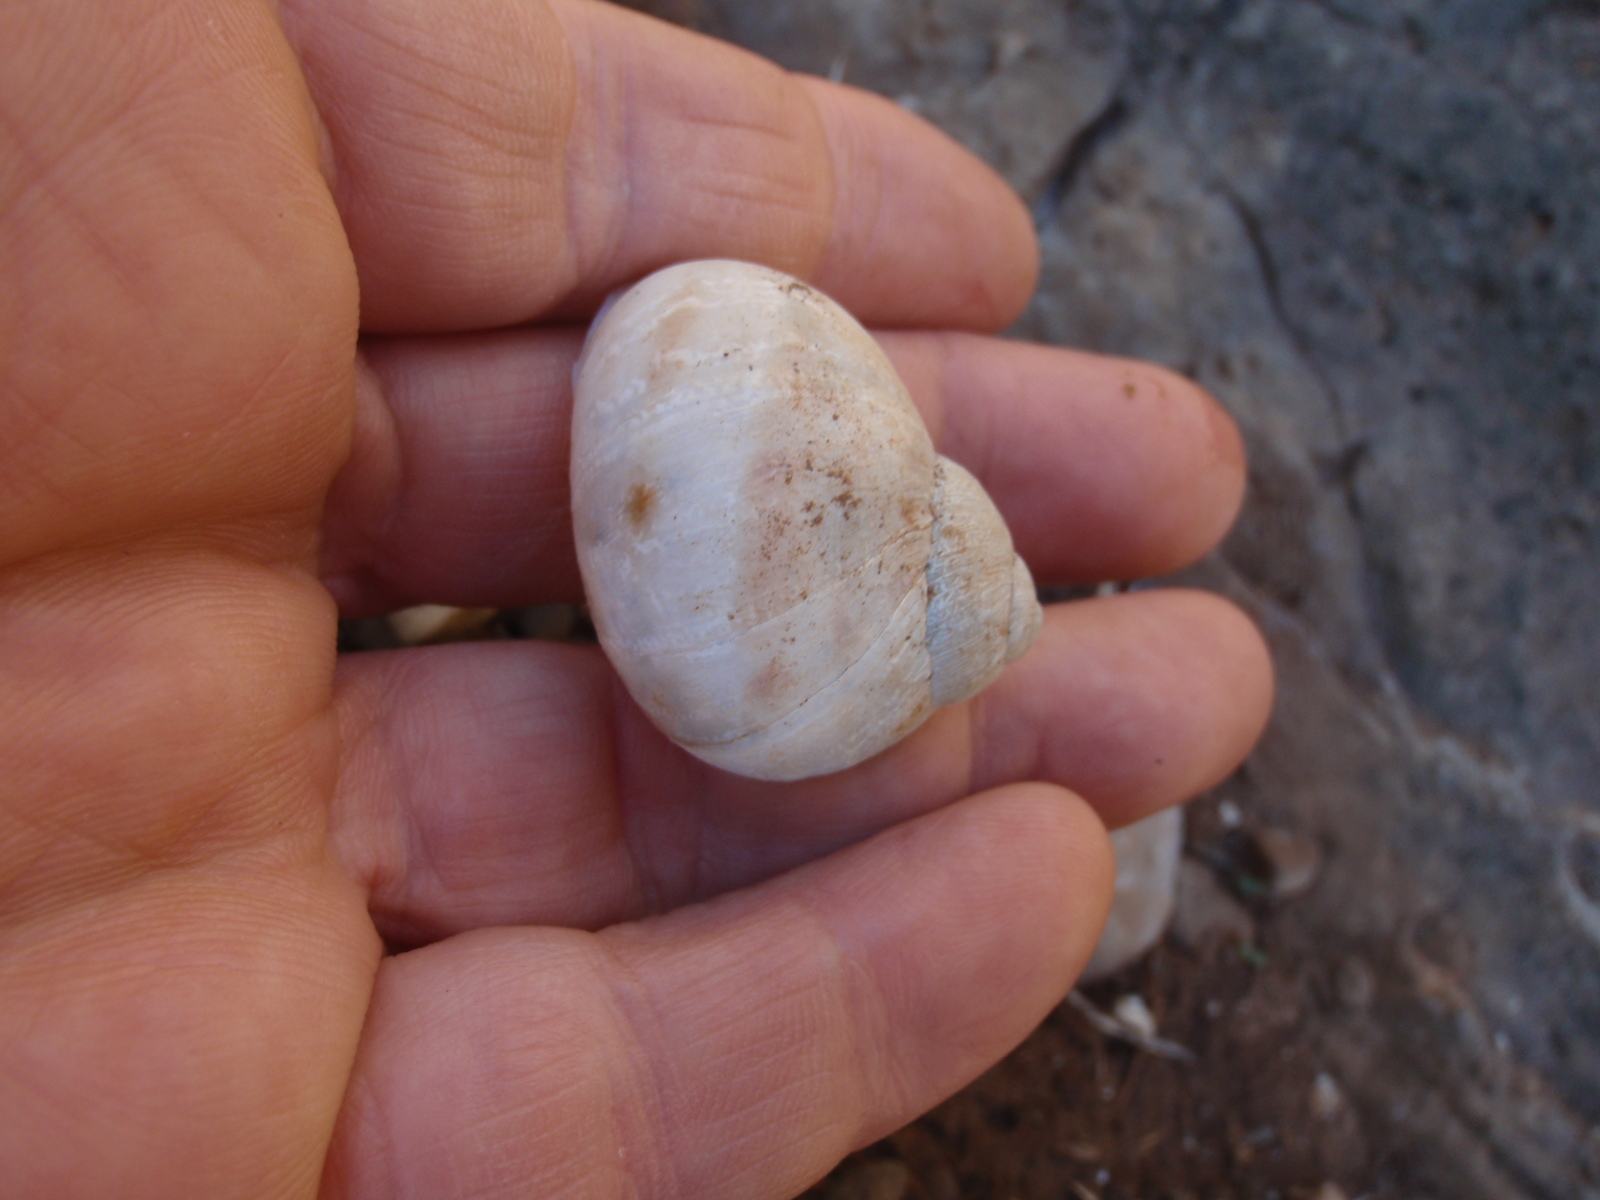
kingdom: Animalia
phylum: Mollusca
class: Gastropoda
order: Stylommatophora
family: Helicidae
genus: Cornu
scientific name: Cornu aspersum
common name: Brown garden snail
